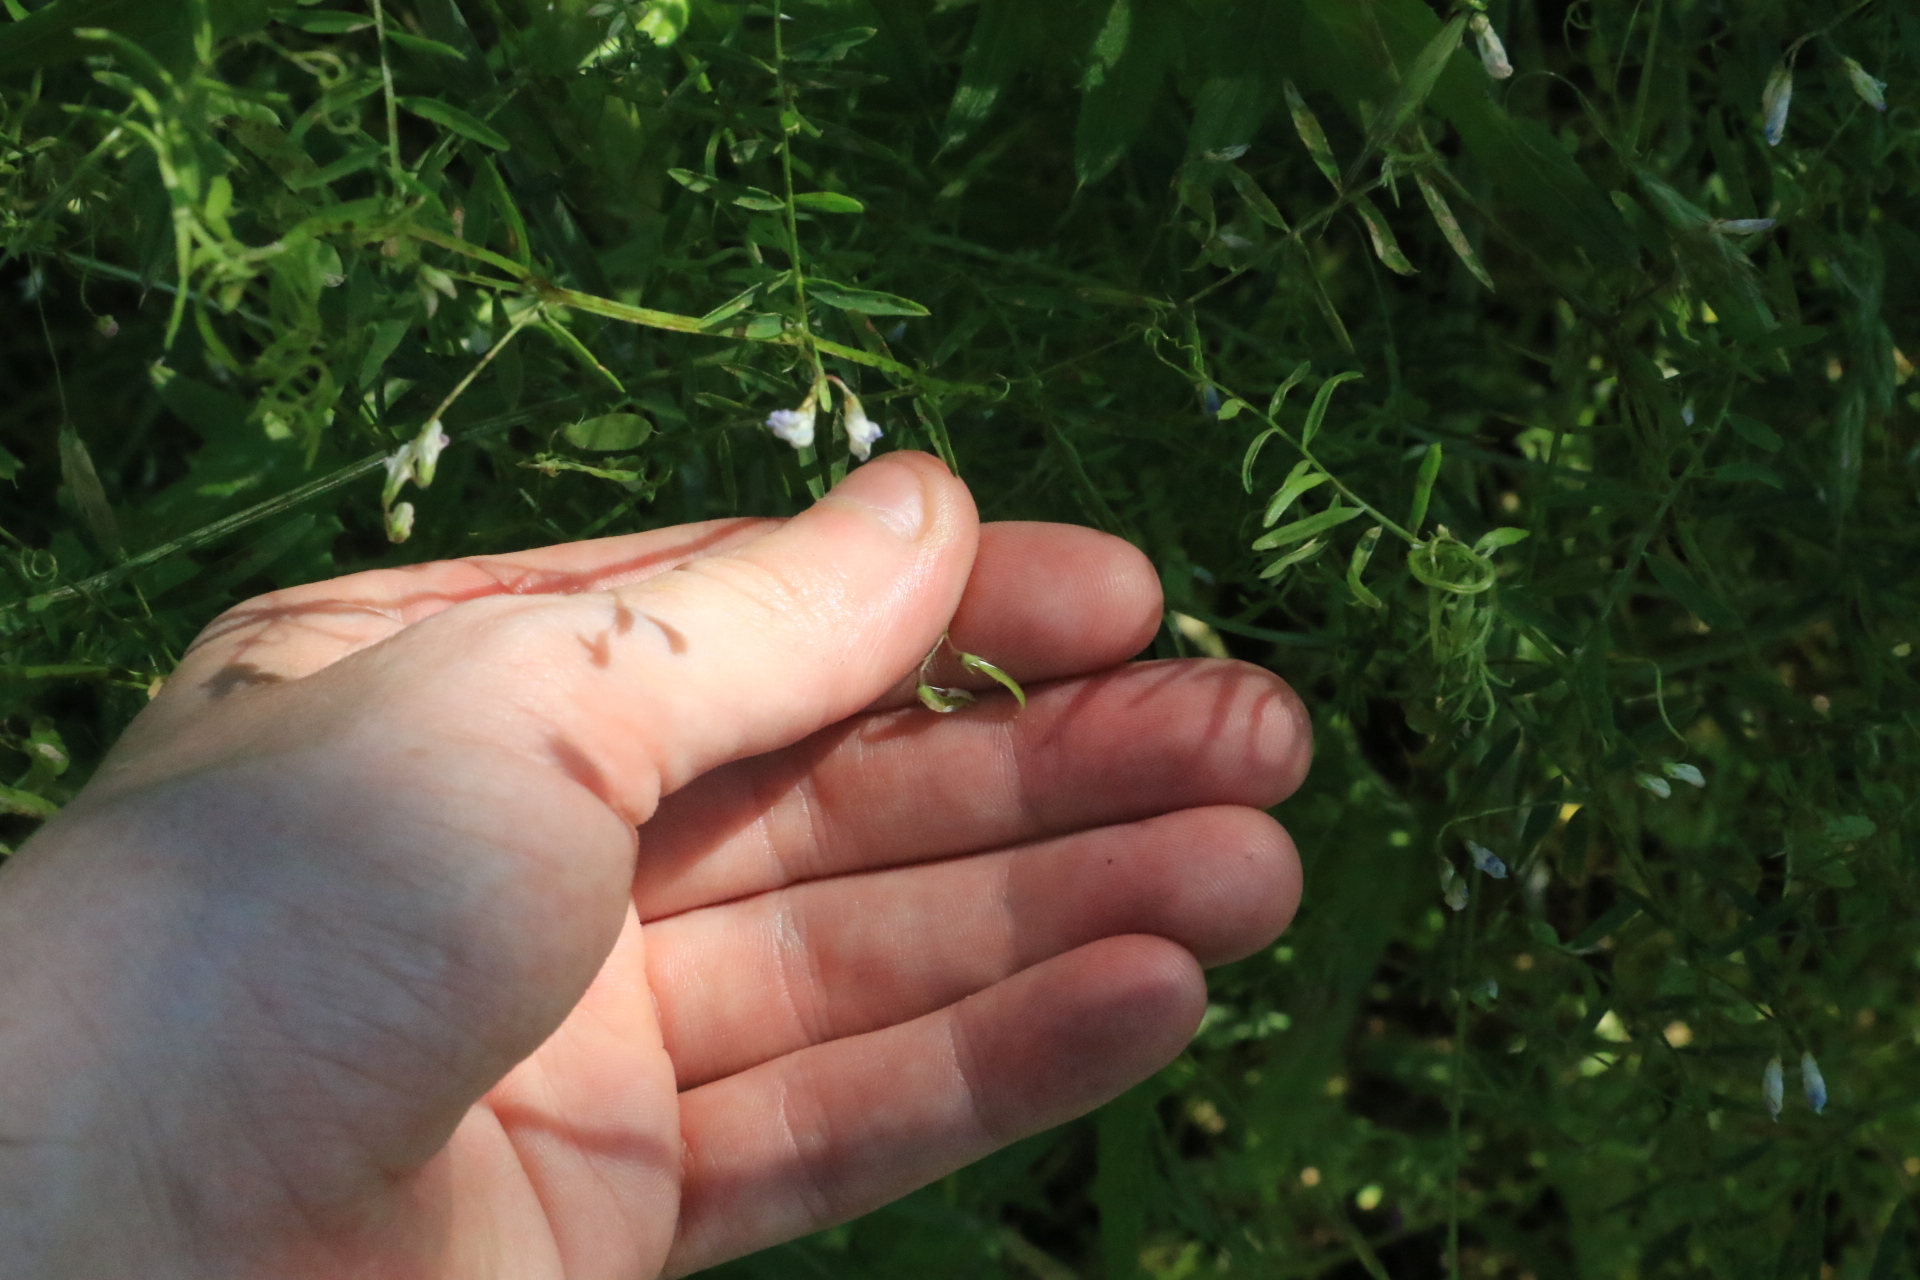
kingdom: Plantae
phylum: Tracheophyta
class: Magnoliopsida
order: Fabales
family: Fabaceae
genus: Vicia
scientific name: Vicia tetrasperma
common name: Smooth tare
